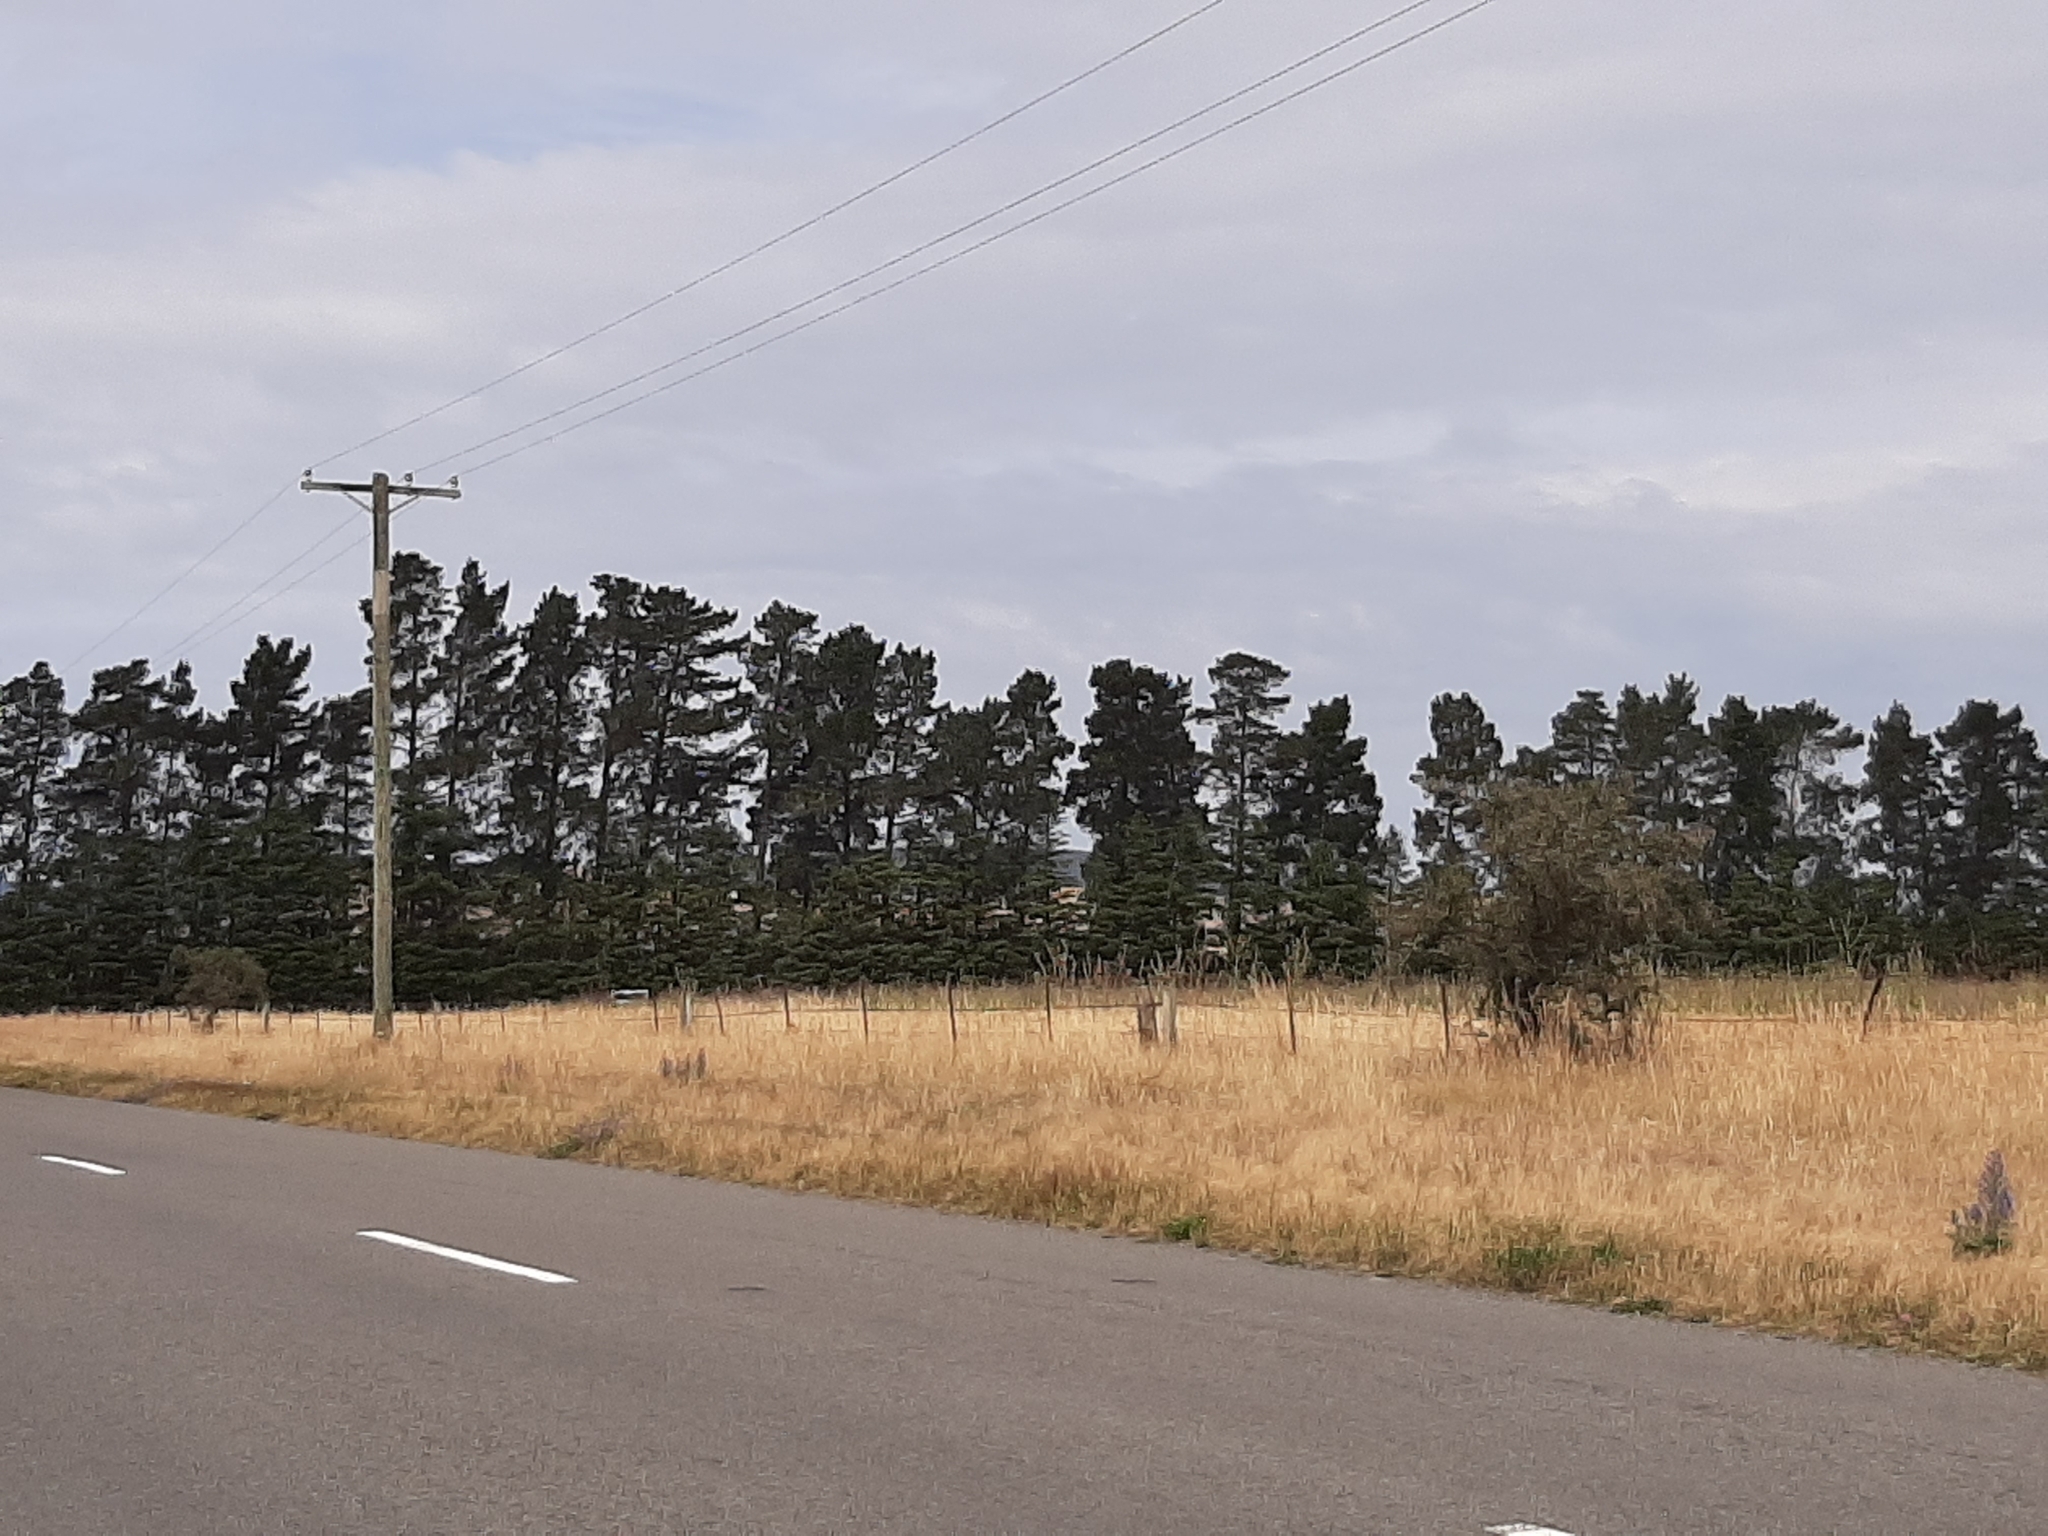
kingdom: Plantae
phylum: Tracheophyta
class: Magnoliopsida
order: Rosales
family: Rhamnaceae
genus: Discaria
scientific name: Discaria toumatou
